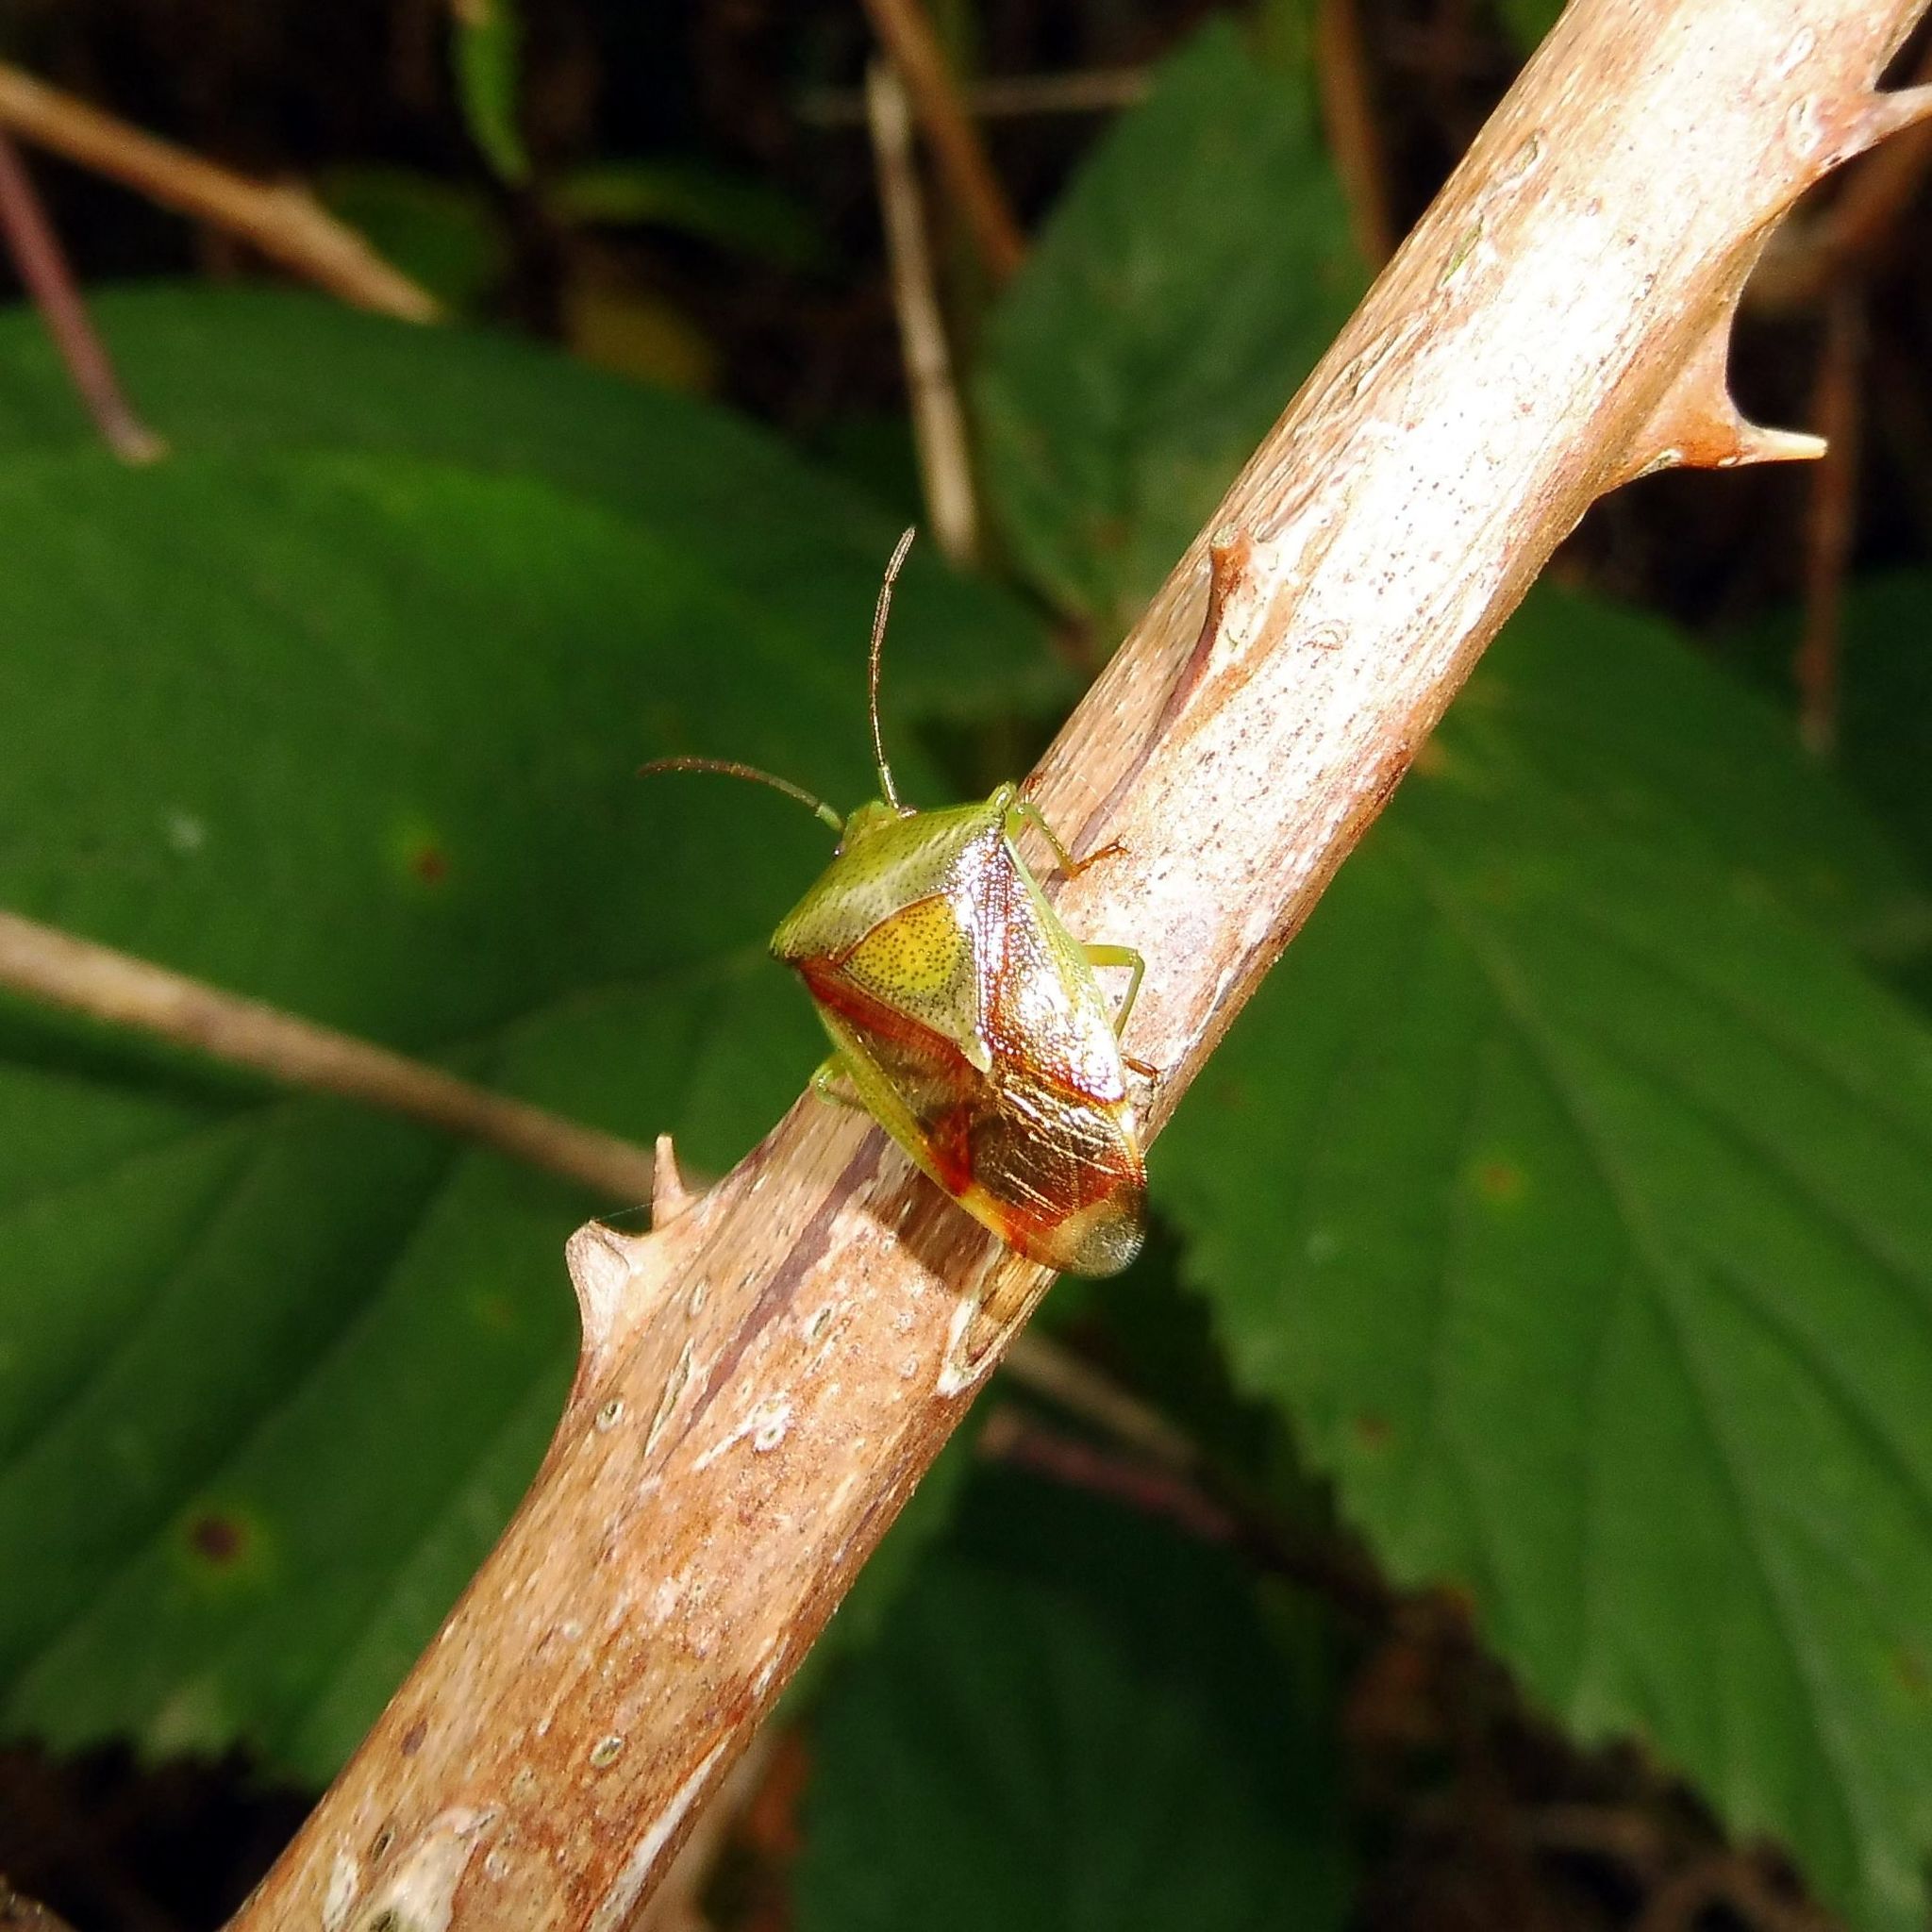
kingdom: Animalia
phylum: Arthropoda
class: Insecta
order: Hemiptera
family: Acanthosomatidae
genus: Elasmostethus
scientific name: Elasmostethus interstinctus
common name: Birch shieldbug
